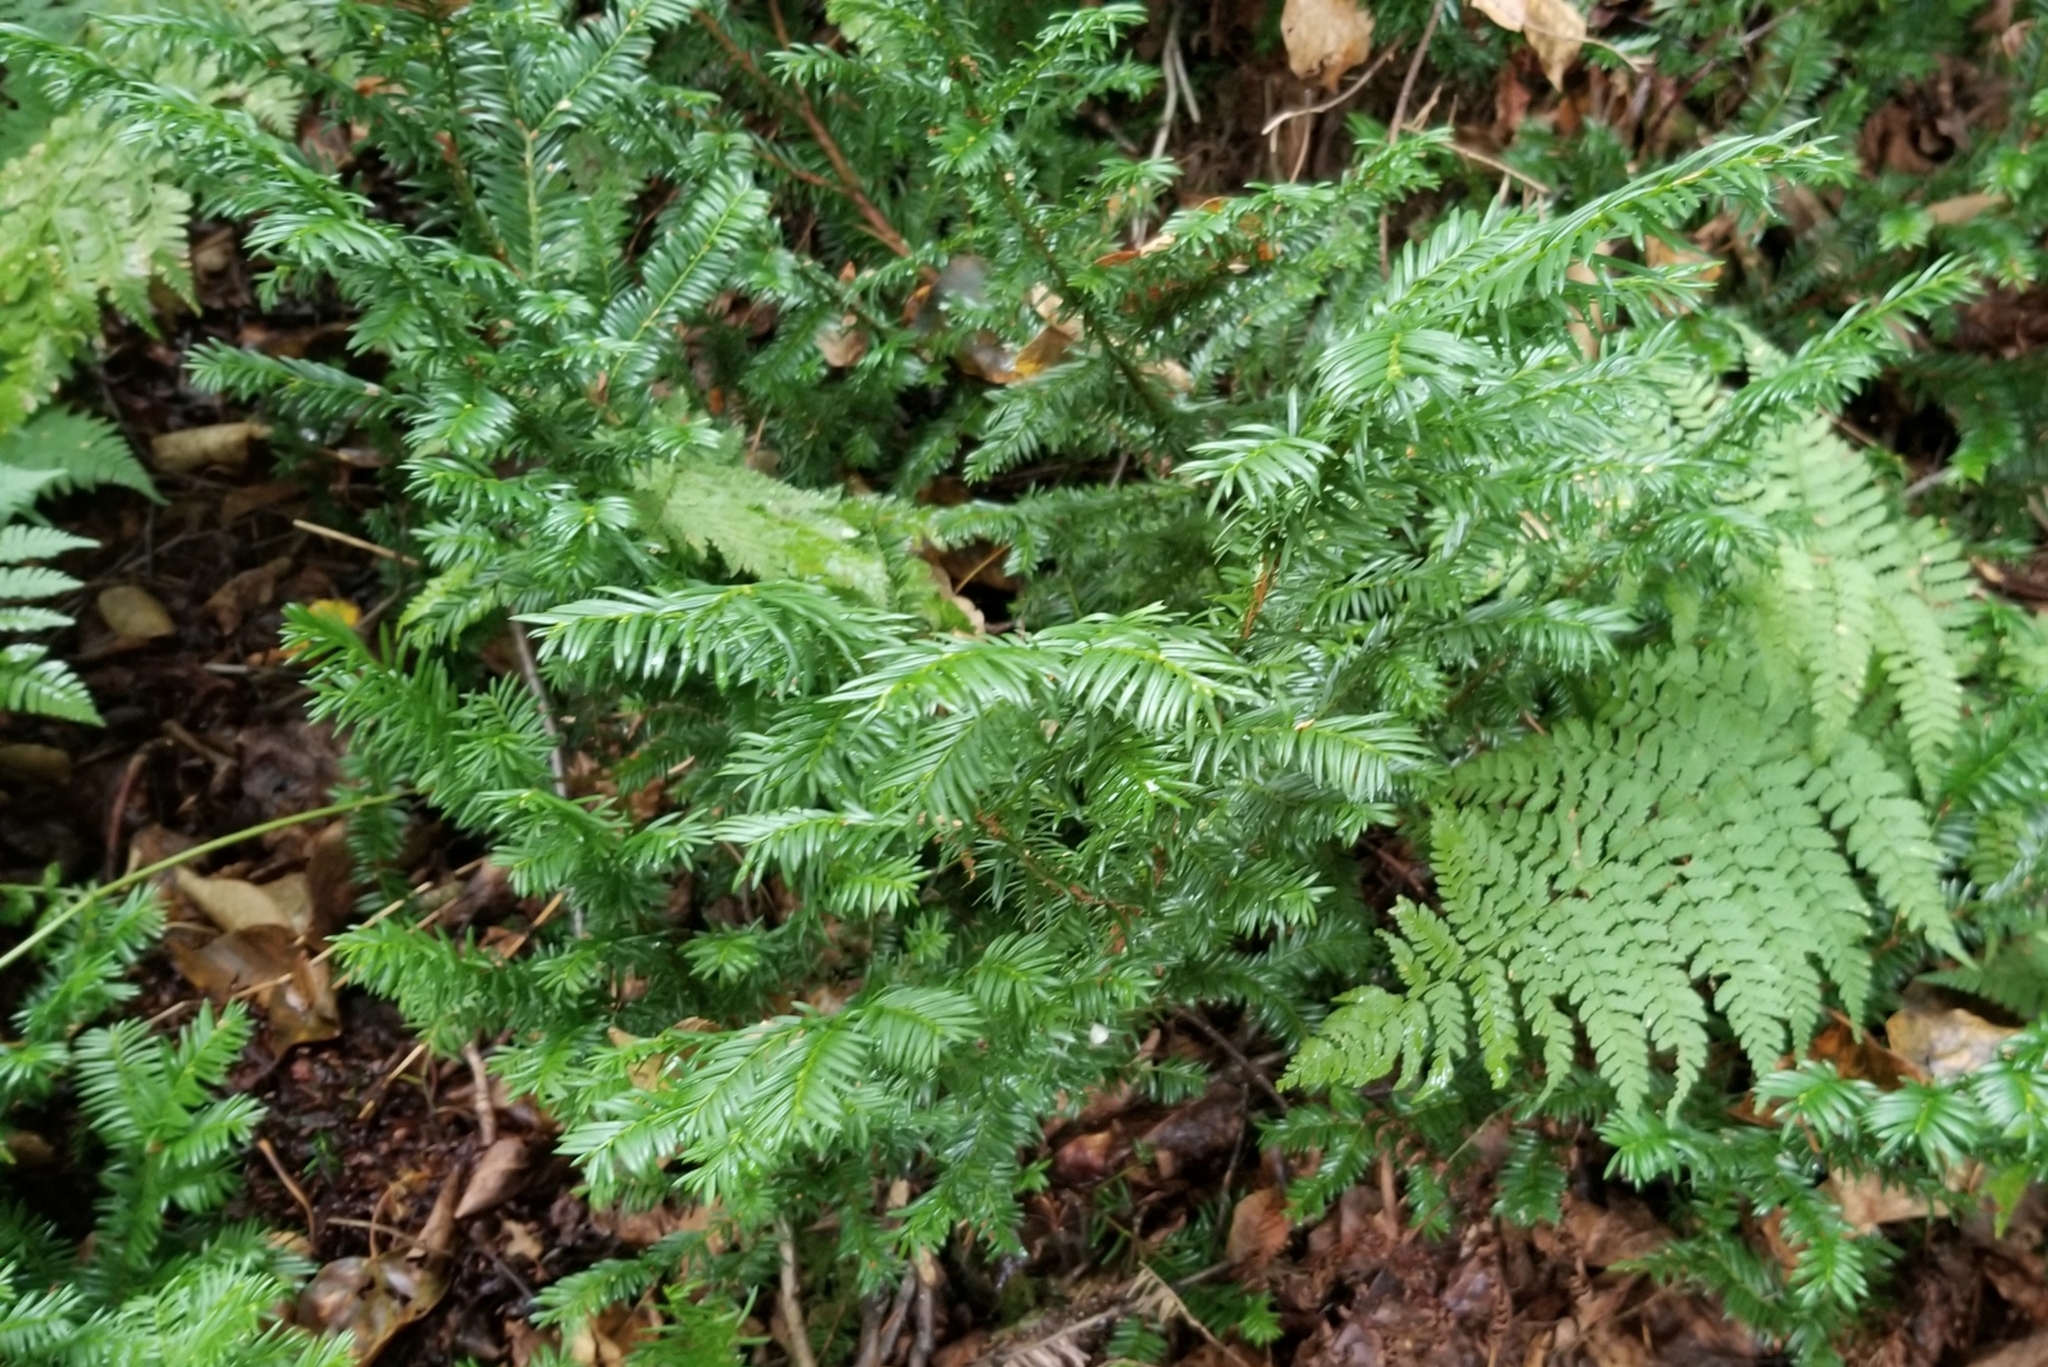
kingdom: Plantae
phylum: Tracheophyta
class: Pinopsida
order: Pinales
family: Taxaceae
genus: Taxus
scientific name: Taxus canadensis
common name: American yew
